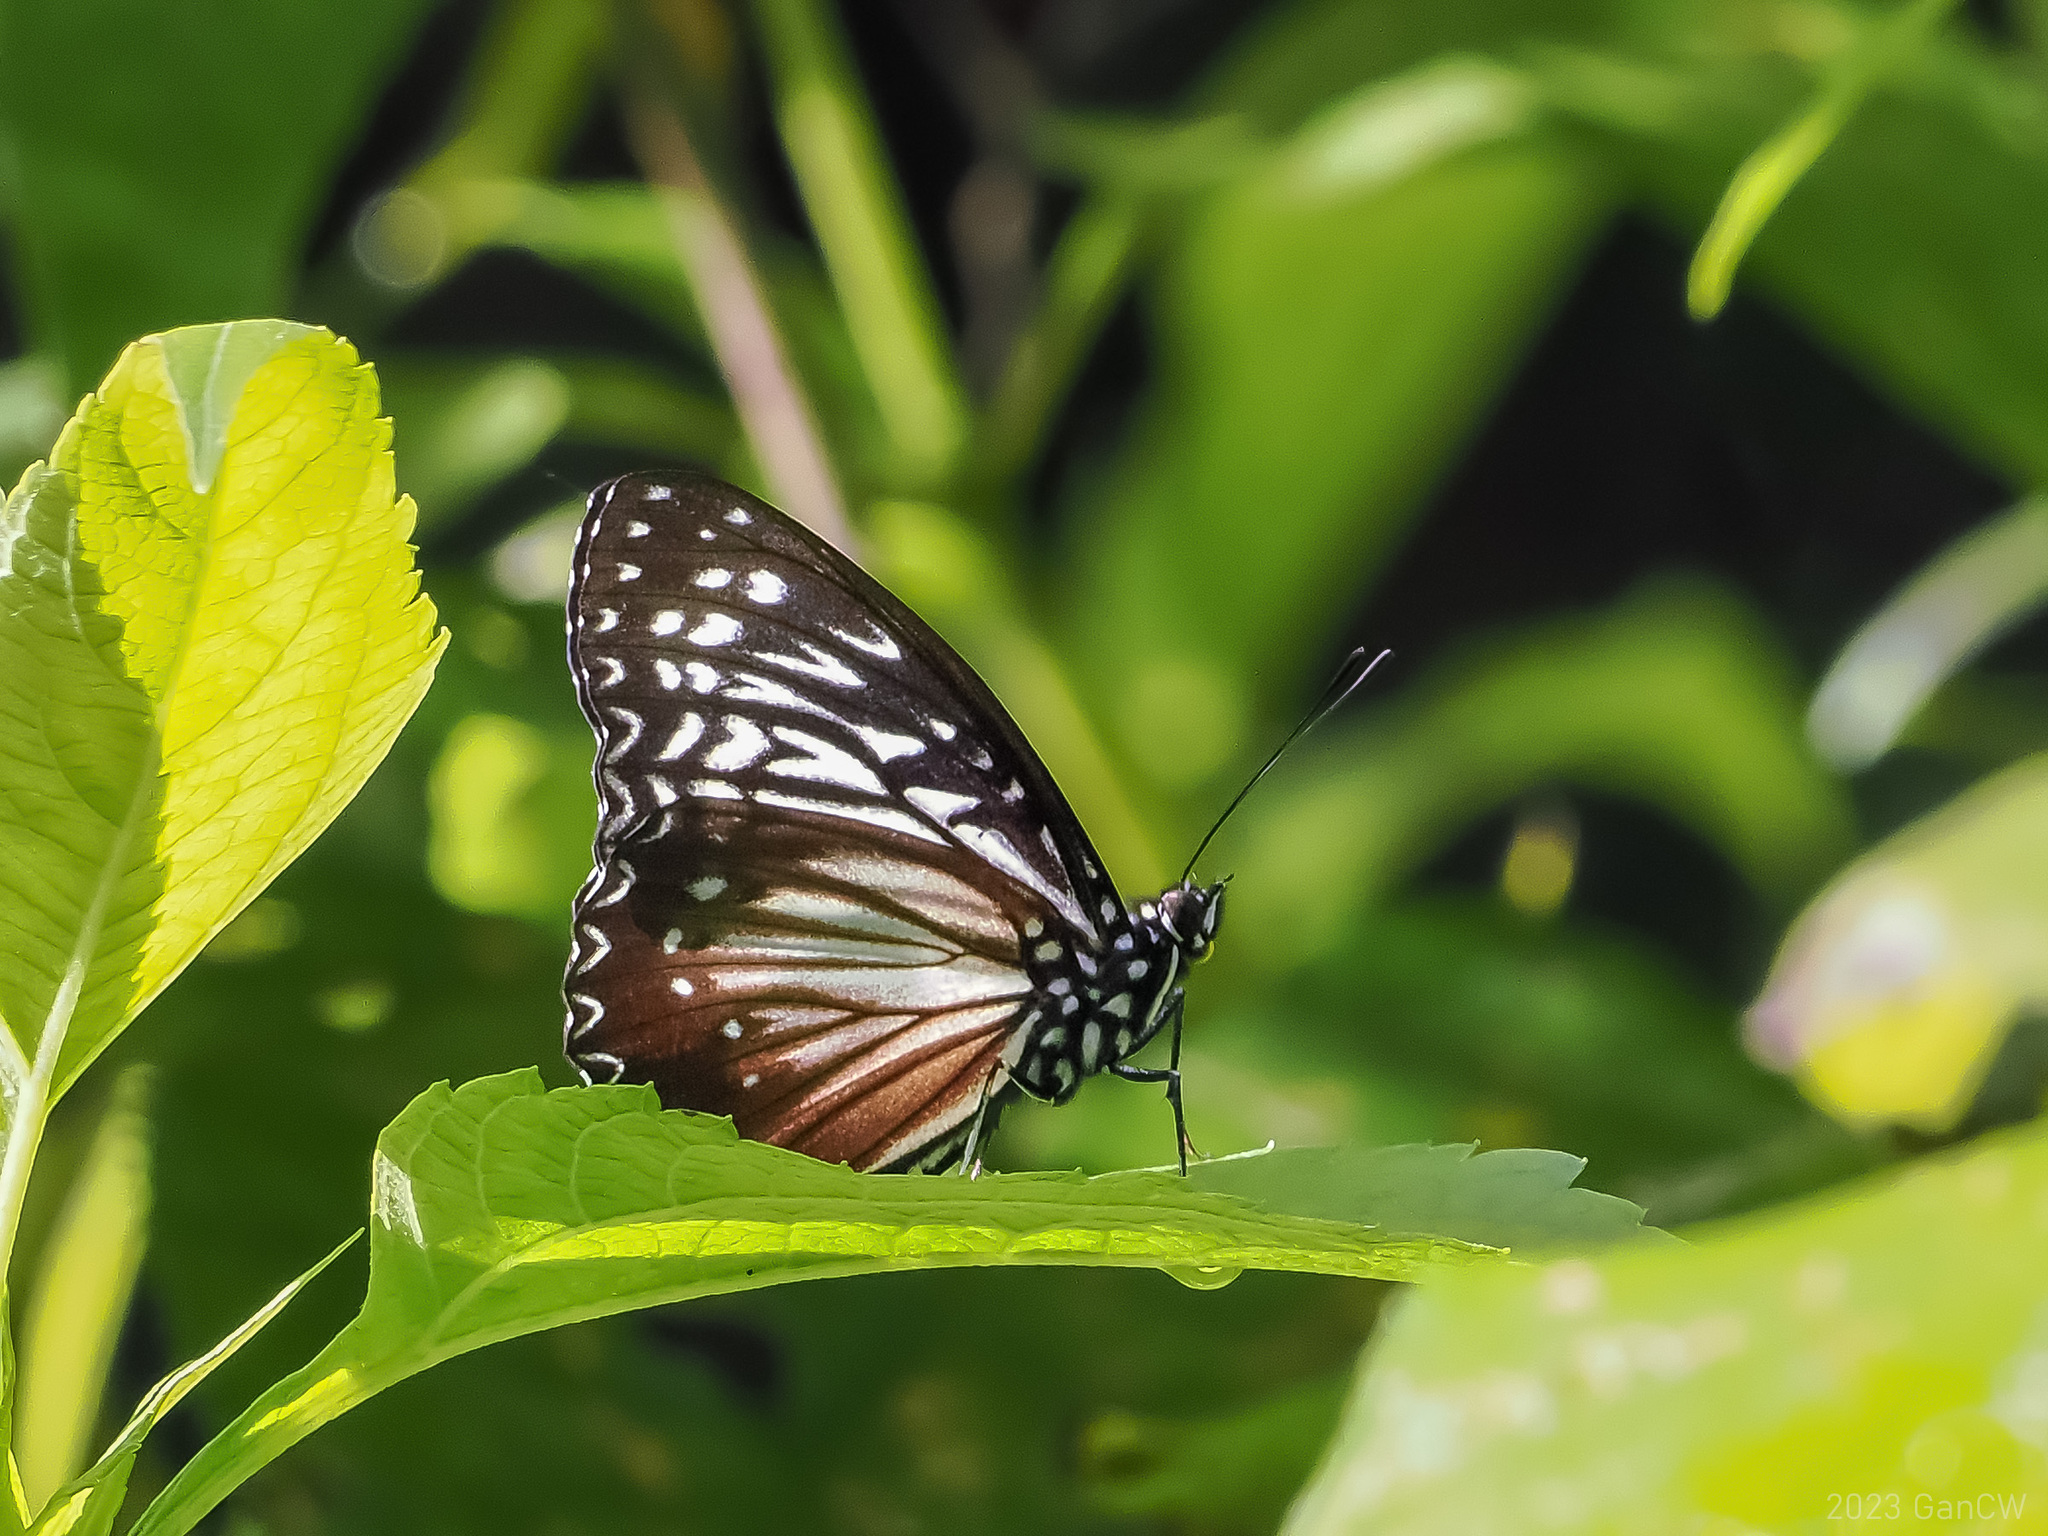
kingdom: Animalia
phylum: Arthropoda
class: Insecta
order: Lepidoptera
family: Nymphalidae
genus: Hestinalis
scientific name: Hestinalis nama
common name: Circe
